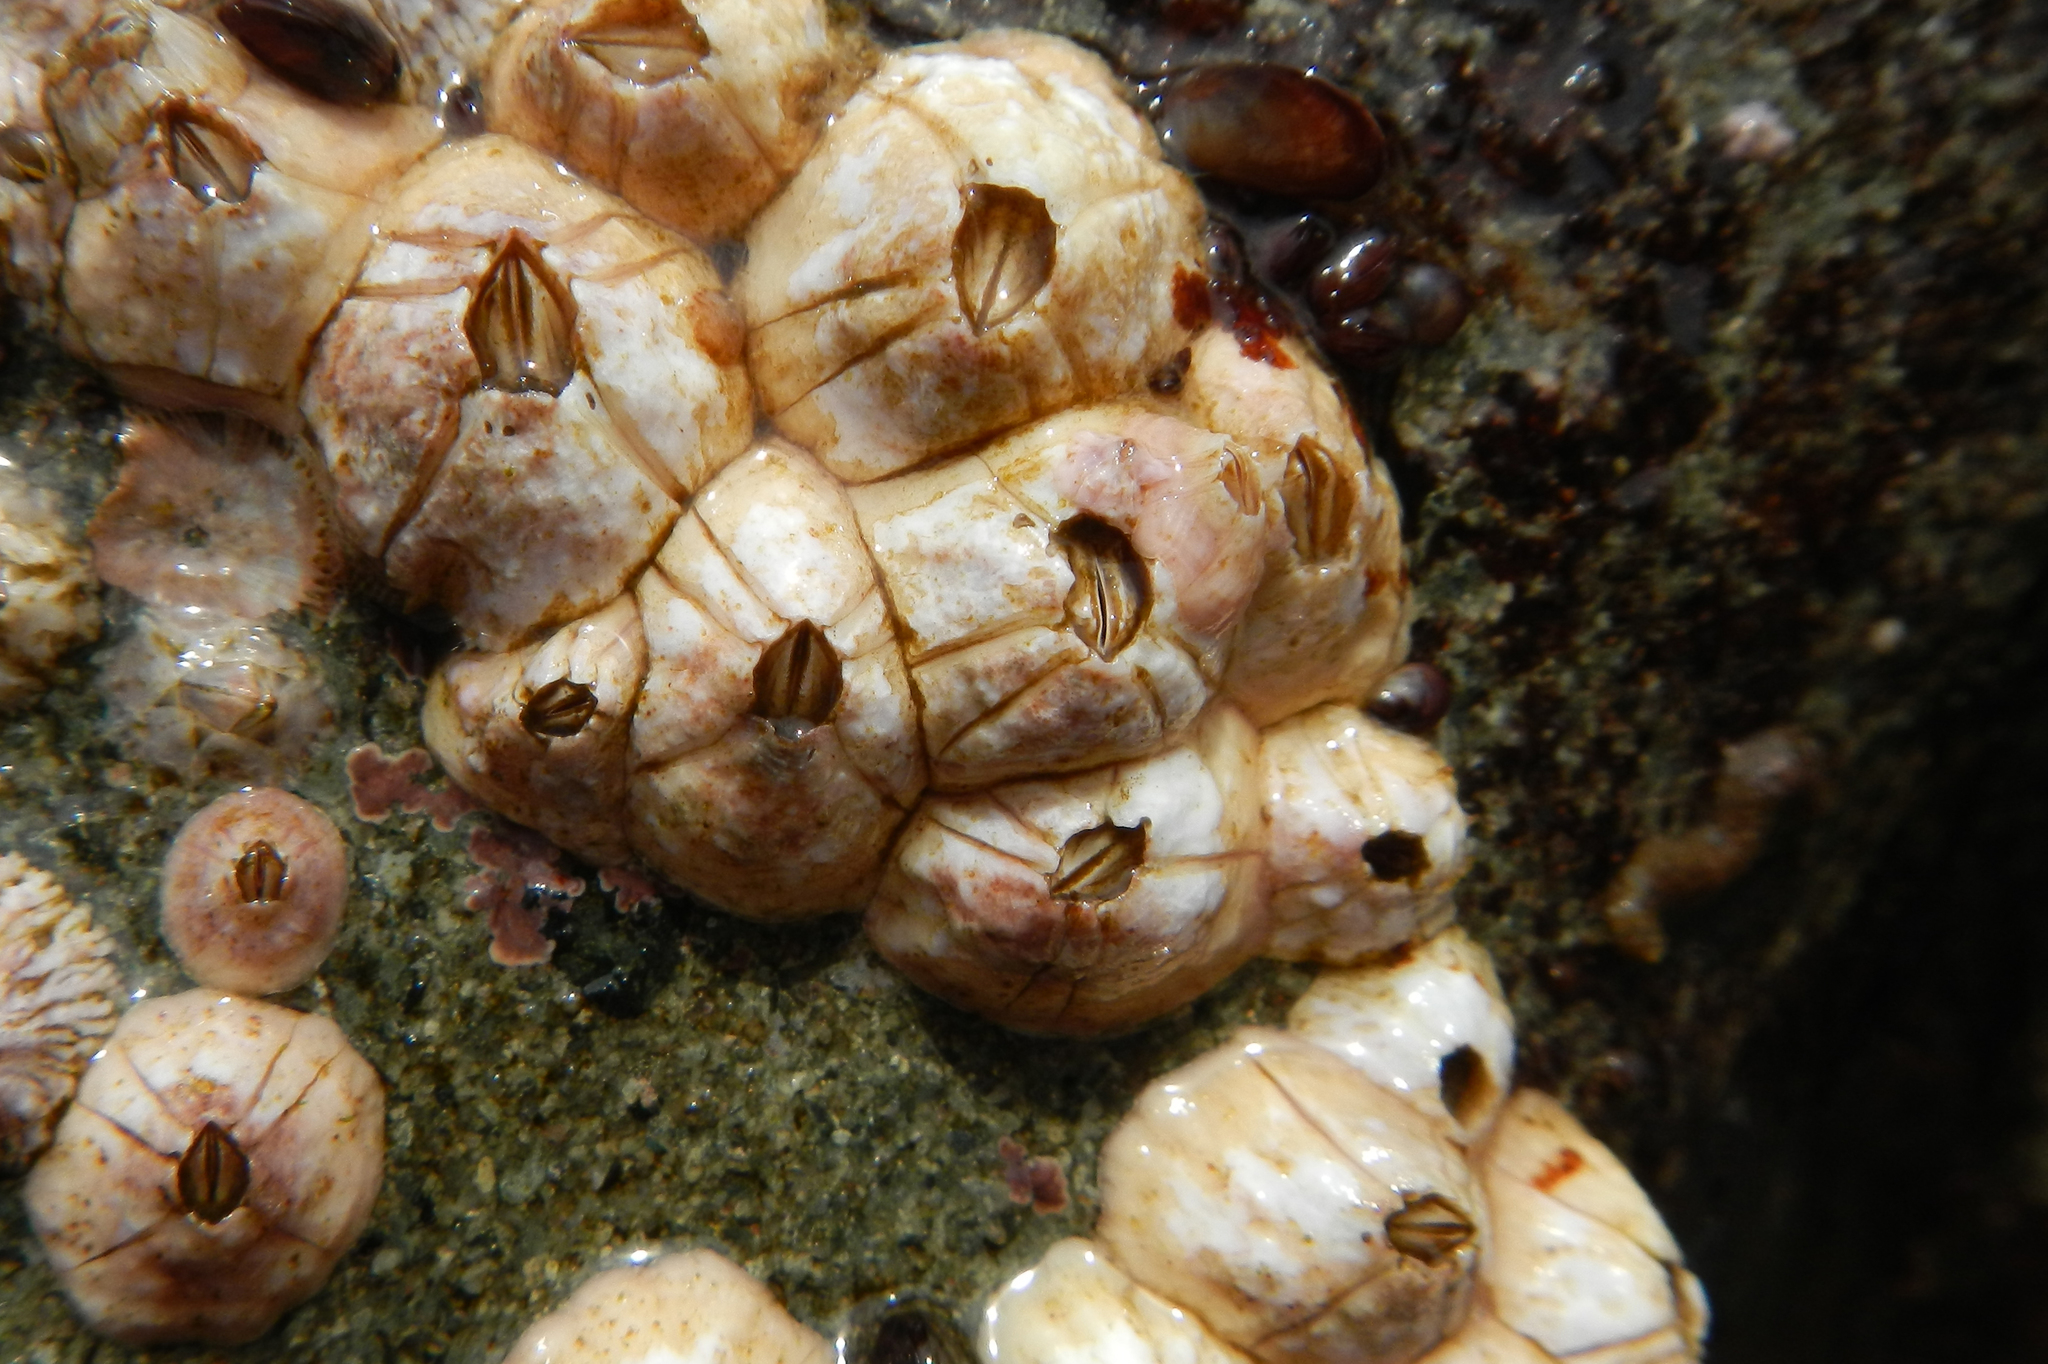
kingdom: Animalia
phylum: Arthropoda
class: Maxillopoda
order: Sessilia
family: Balanidae
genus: Balanus
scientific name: Balanus laevis
